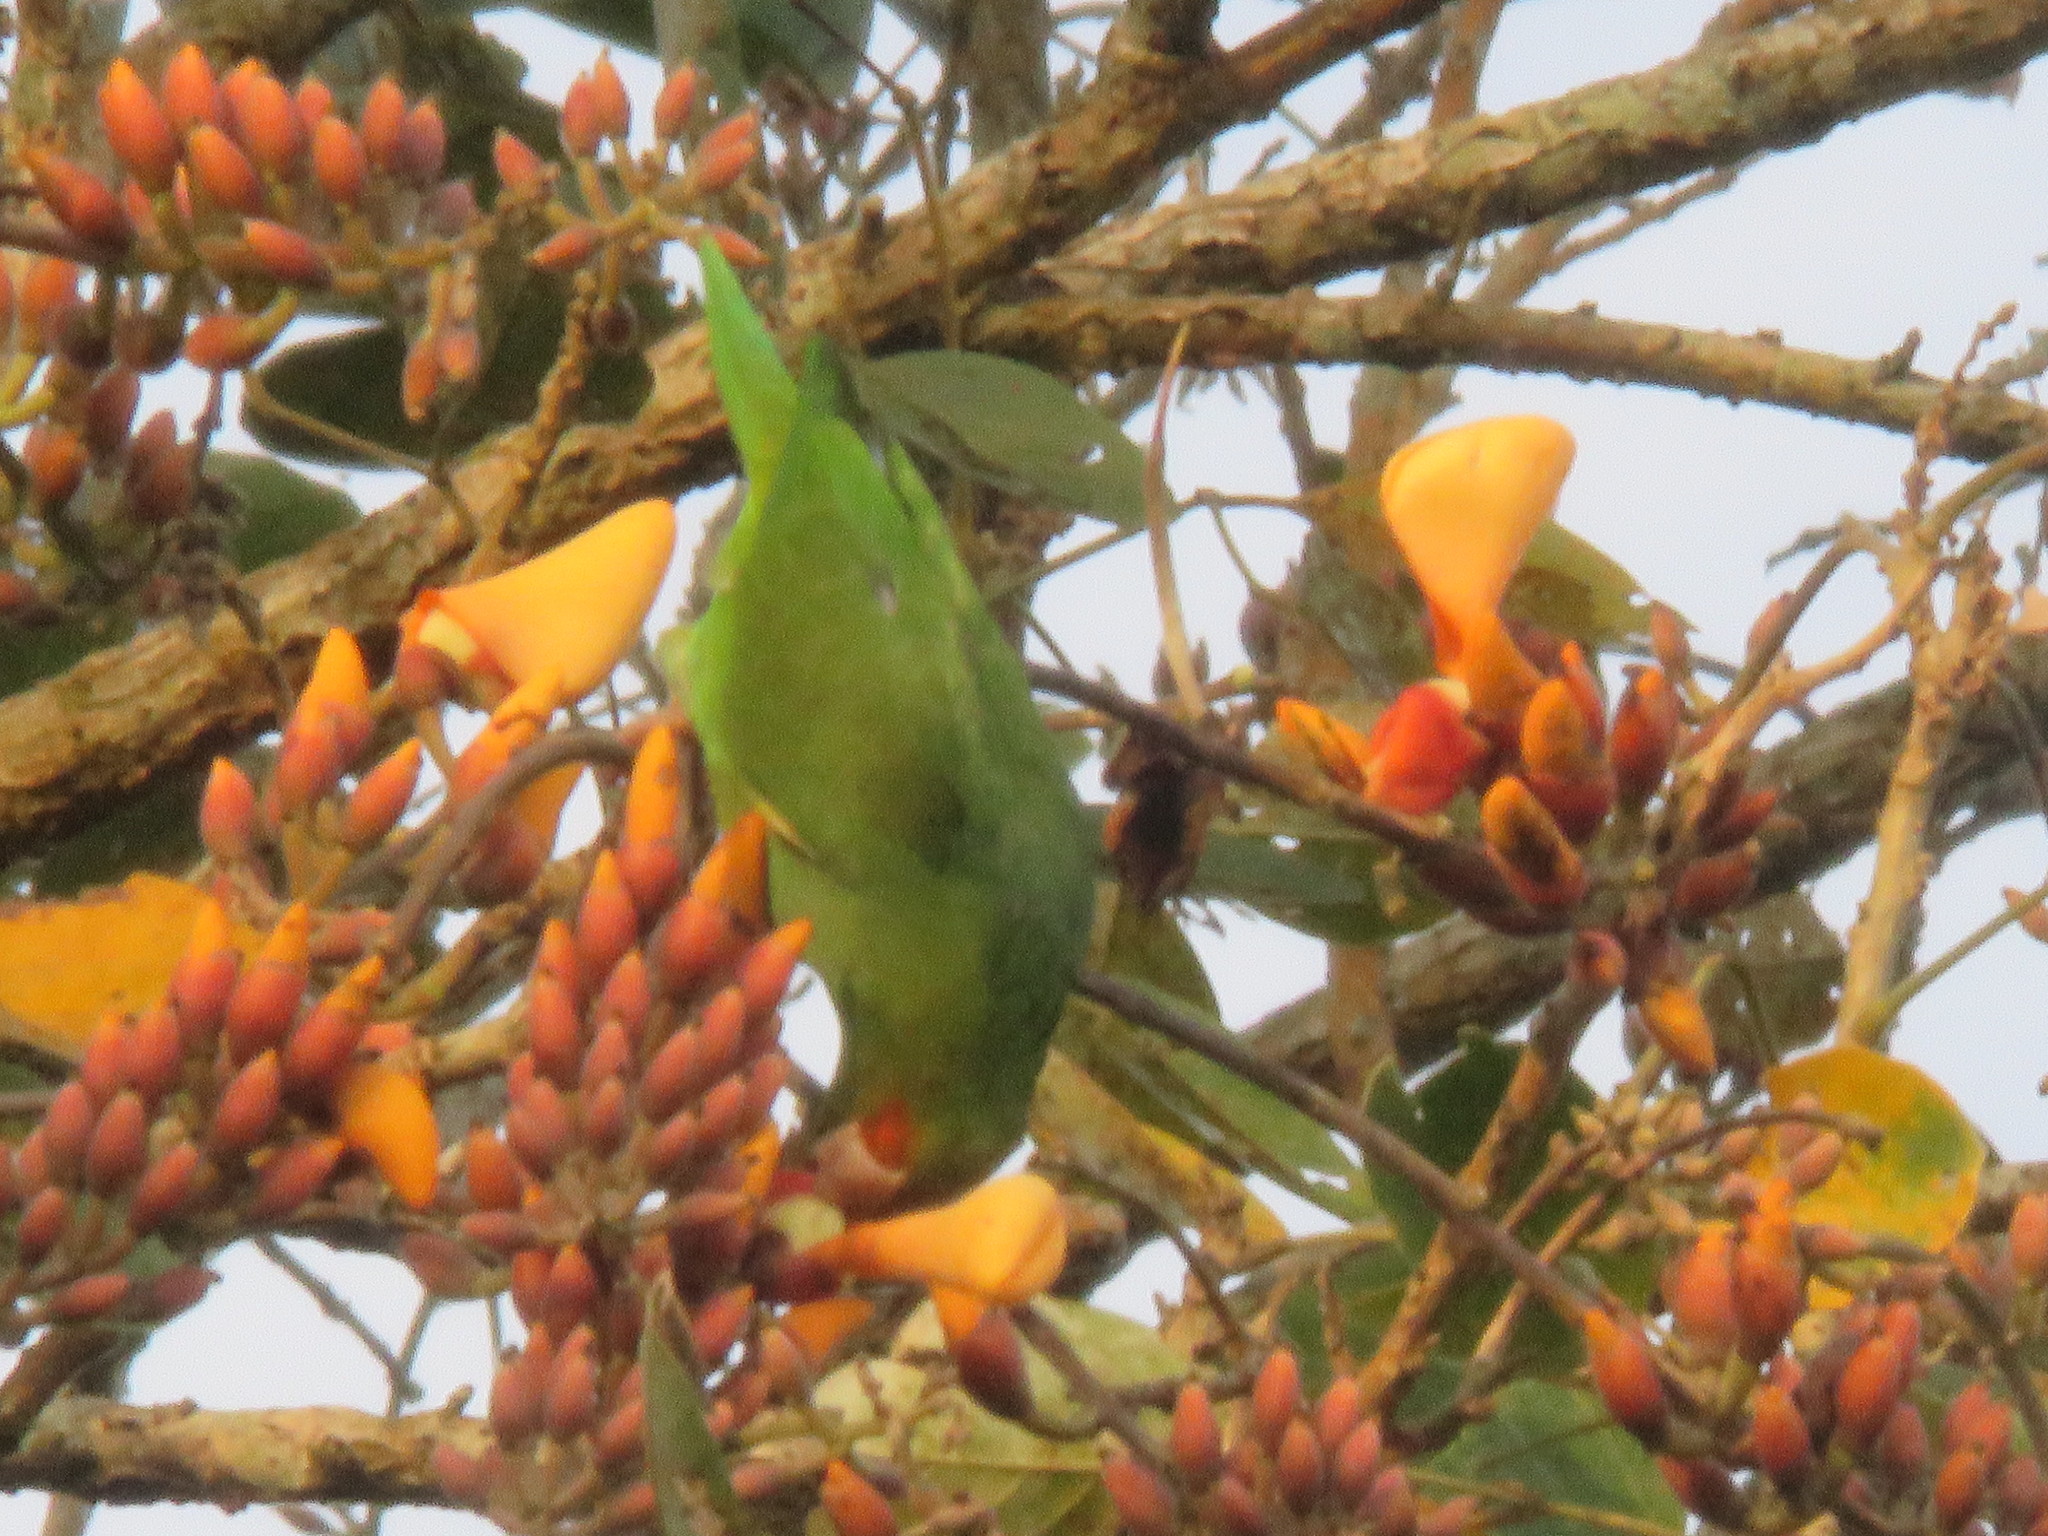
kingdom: Animalia
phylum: Chordata
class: Aves
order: Psittaciformes
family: Psittacidae
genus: Brotogeris
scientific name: Brotogeris cyanoptera
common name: Cobalt-winged parakeet
